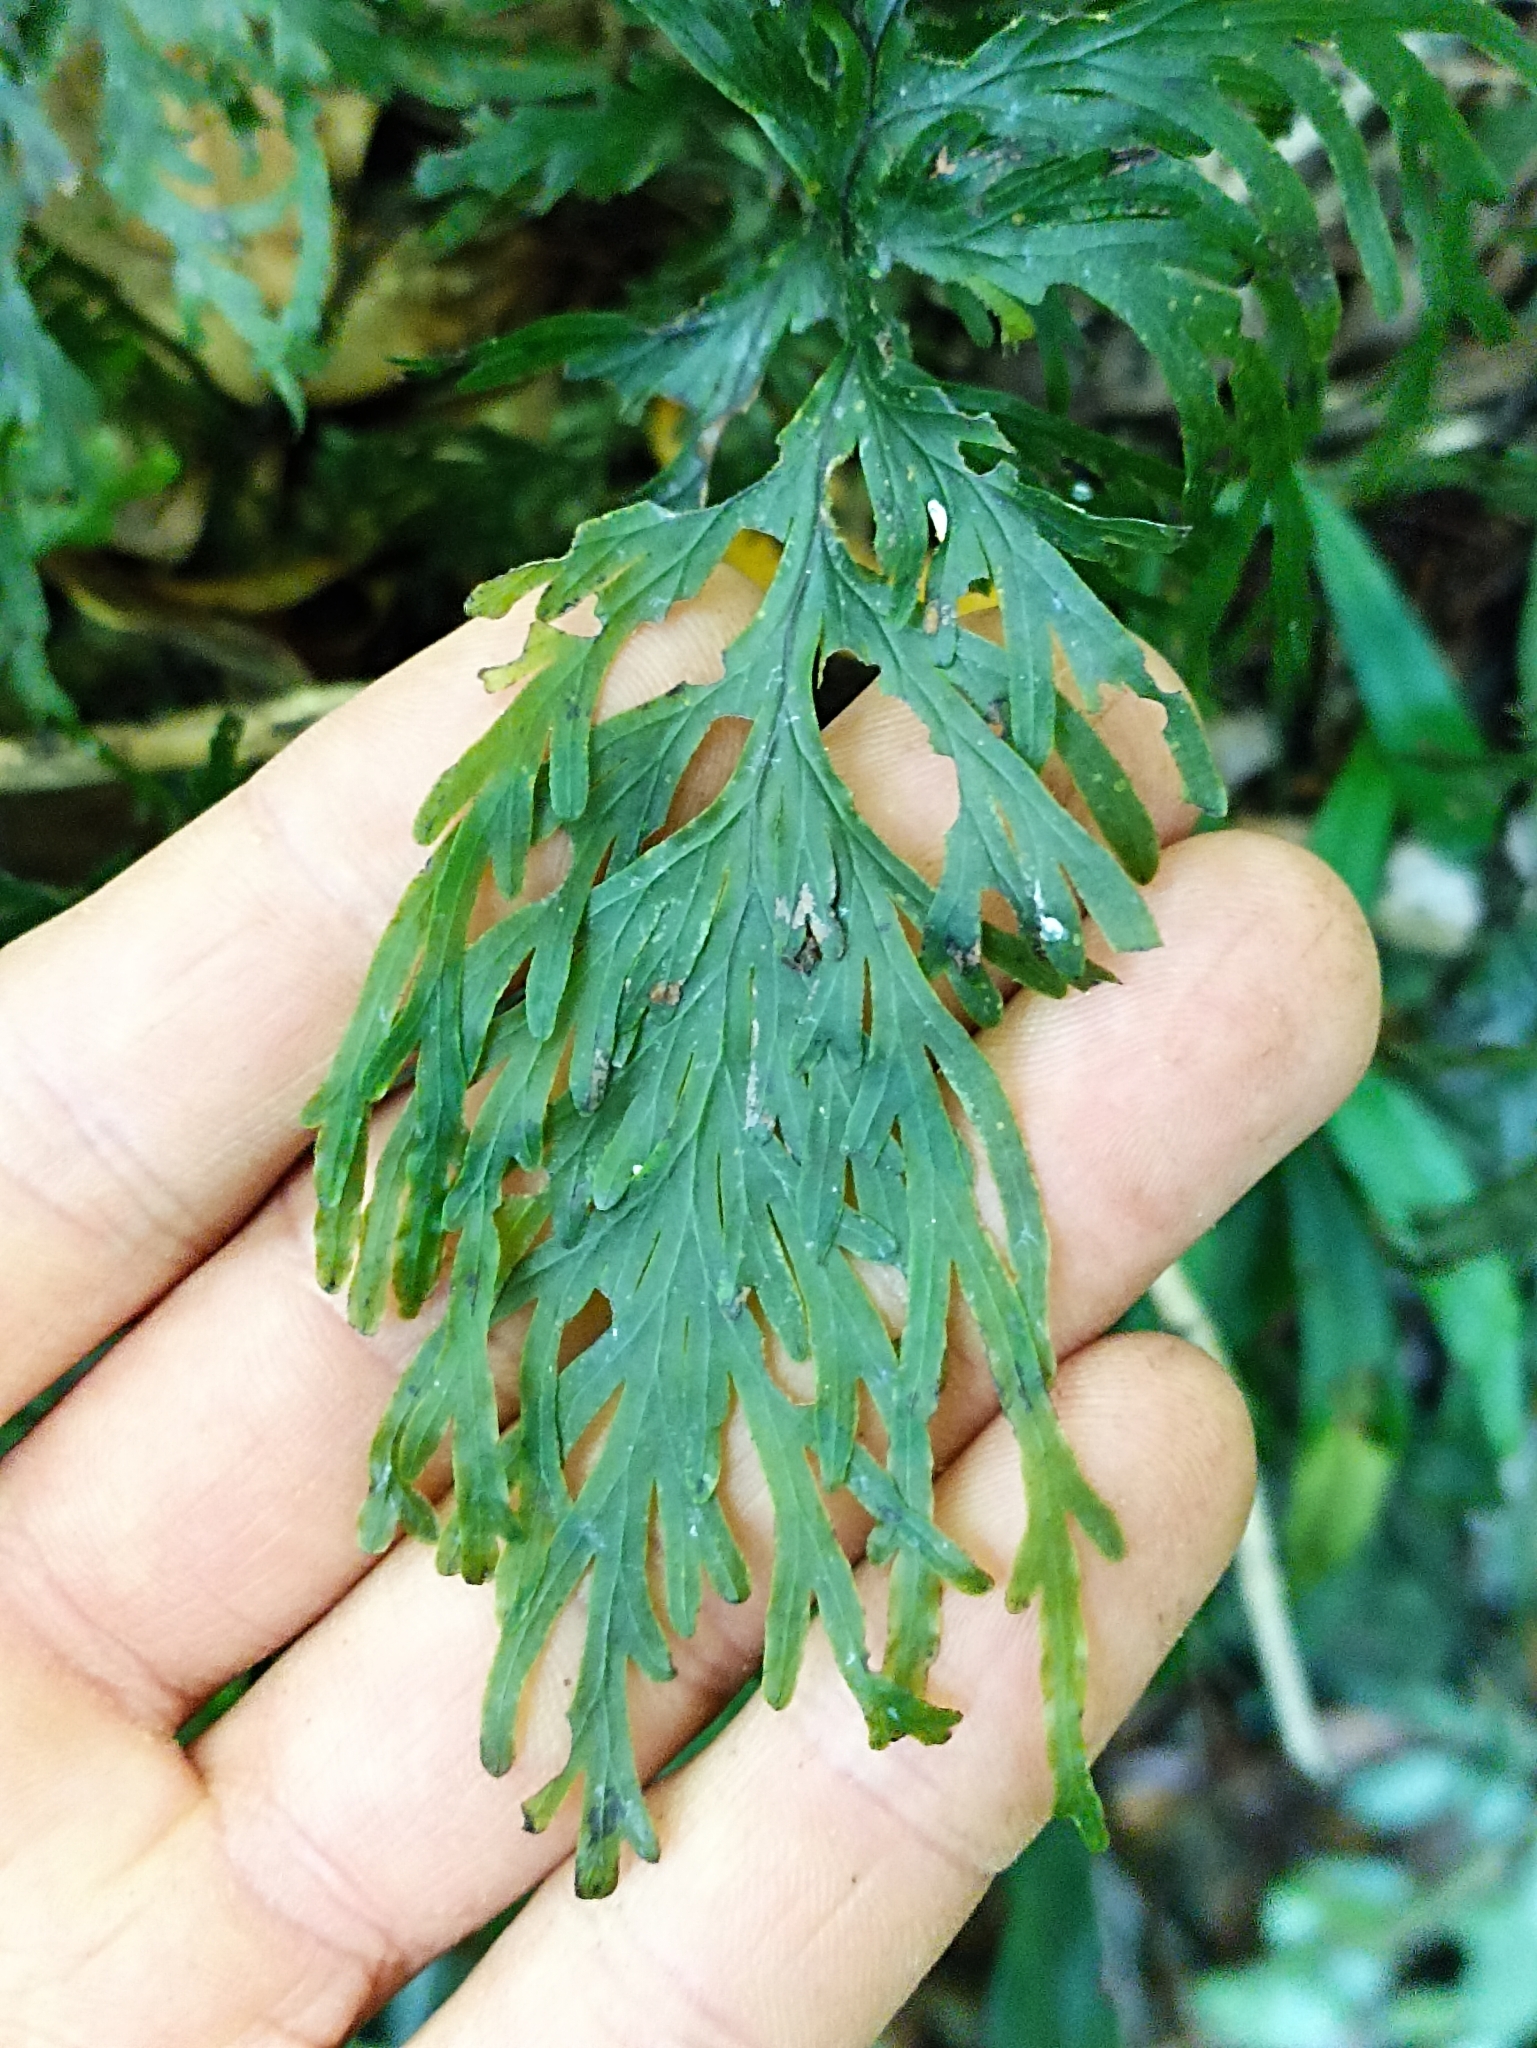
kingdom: Plantae
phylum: Tracheophyta
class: Polypodiopsida
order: Hymenophyllales
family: Hymenophyllaceae
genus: Hymenophyllum
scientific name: Hymenophyllum dilatatum
